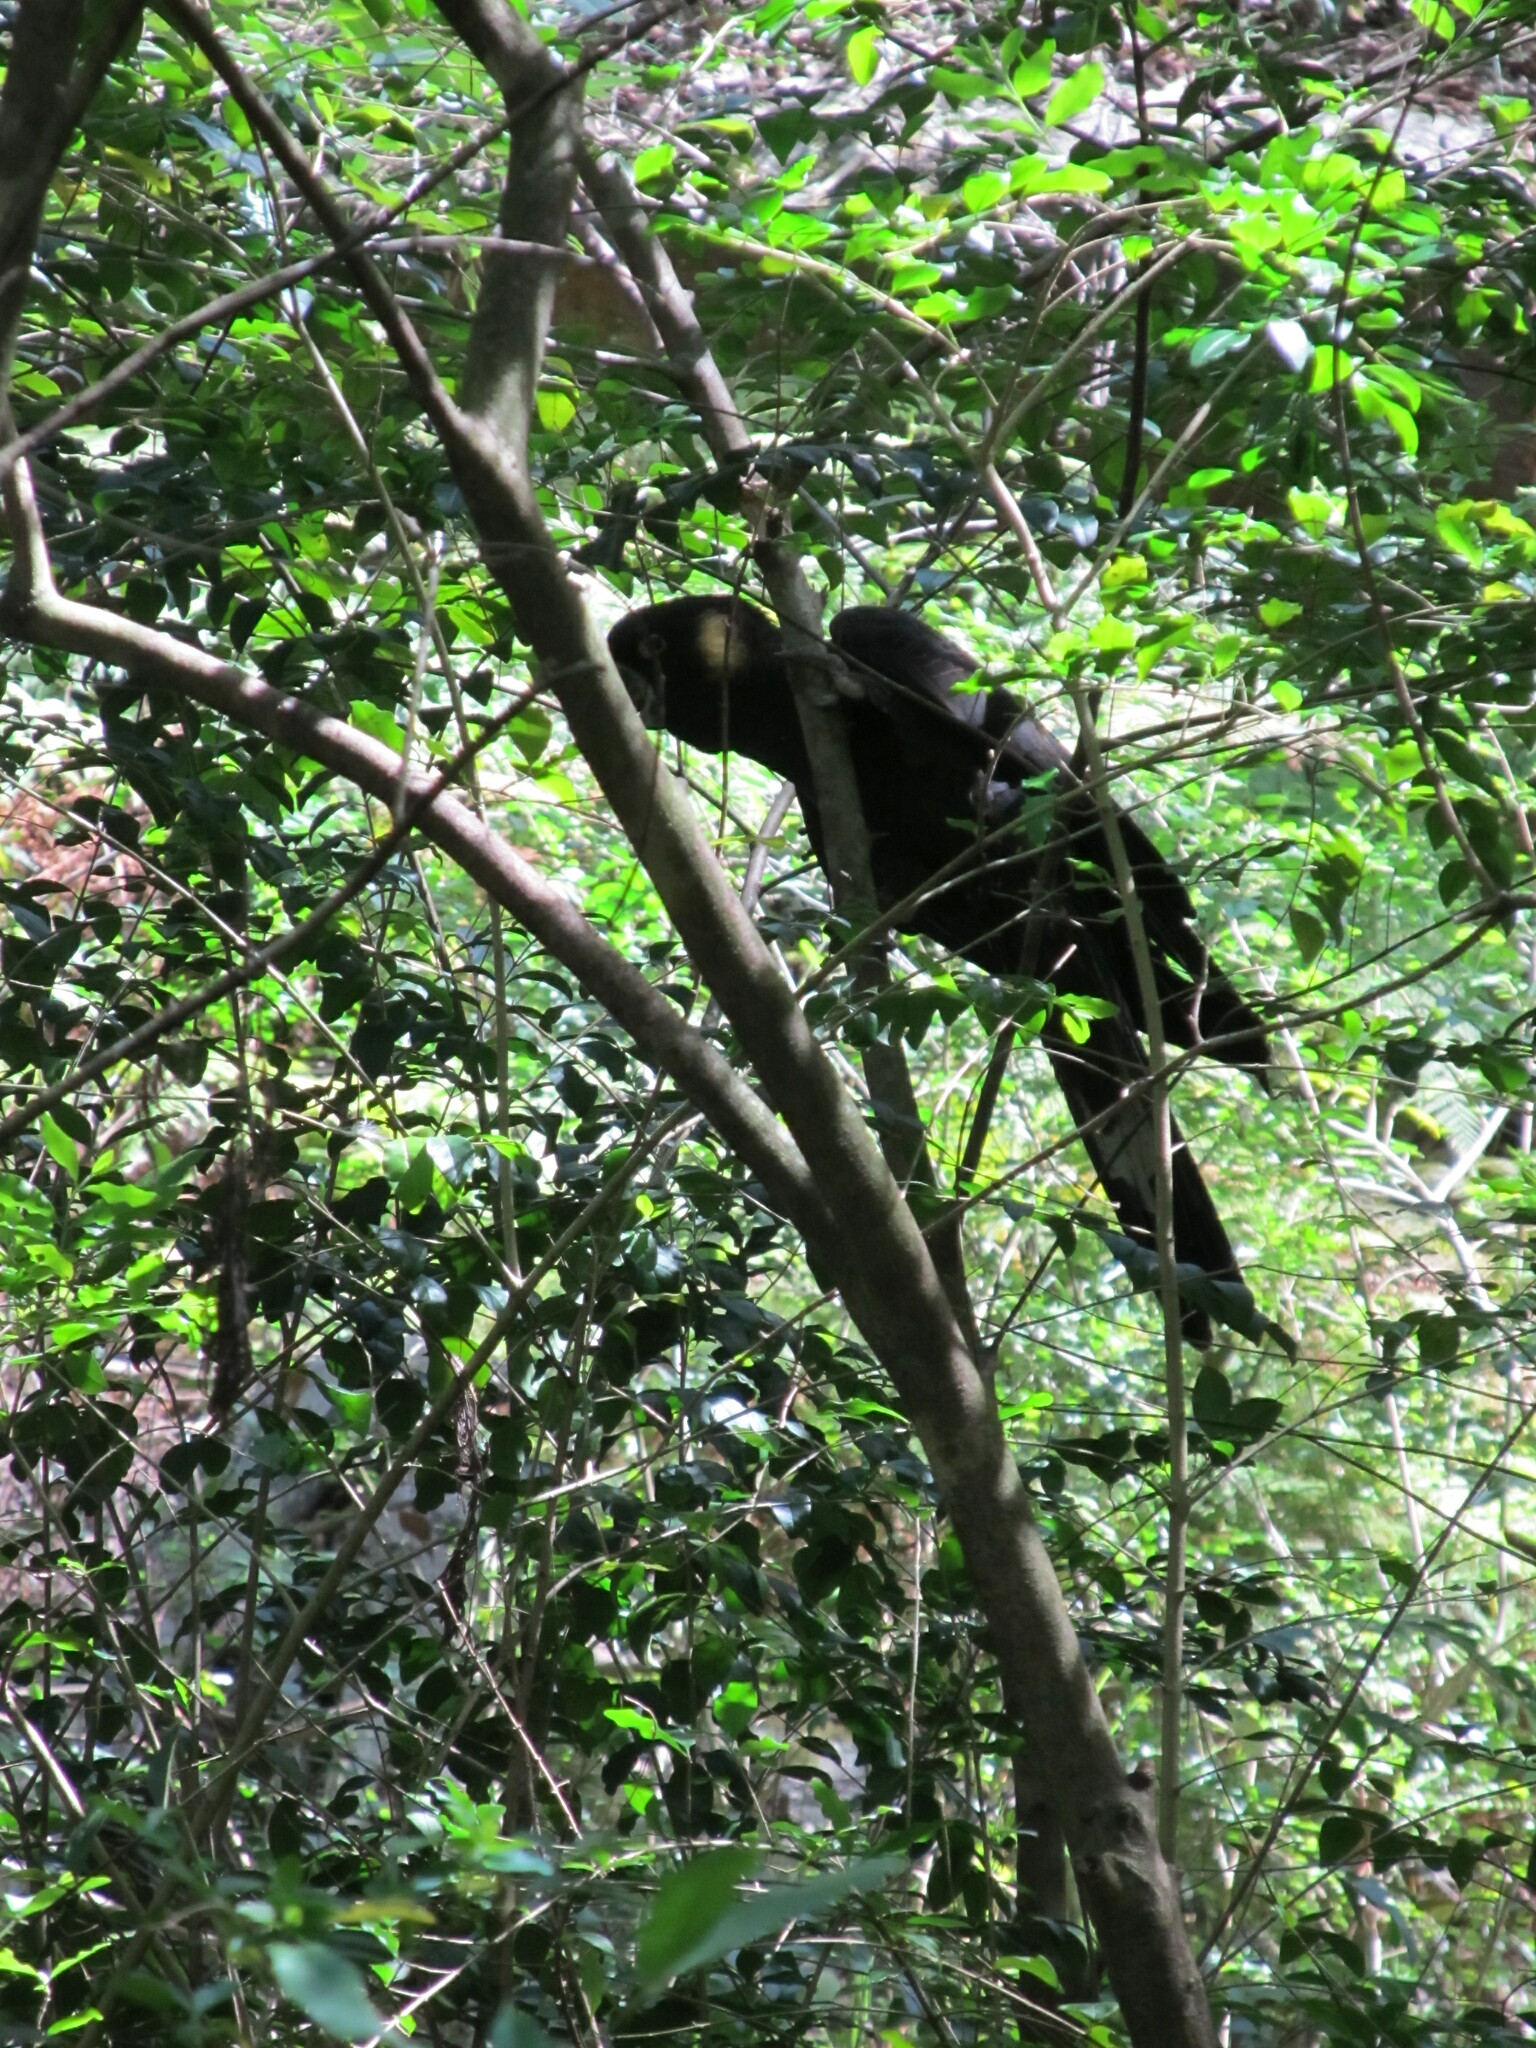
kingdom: Animalia
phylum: Chordata
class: Aves
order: Psittaciformes
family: Cacatuidae
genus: Zanda
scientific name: Zanda funerea
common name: Yellow-tailed black-cockatoo
